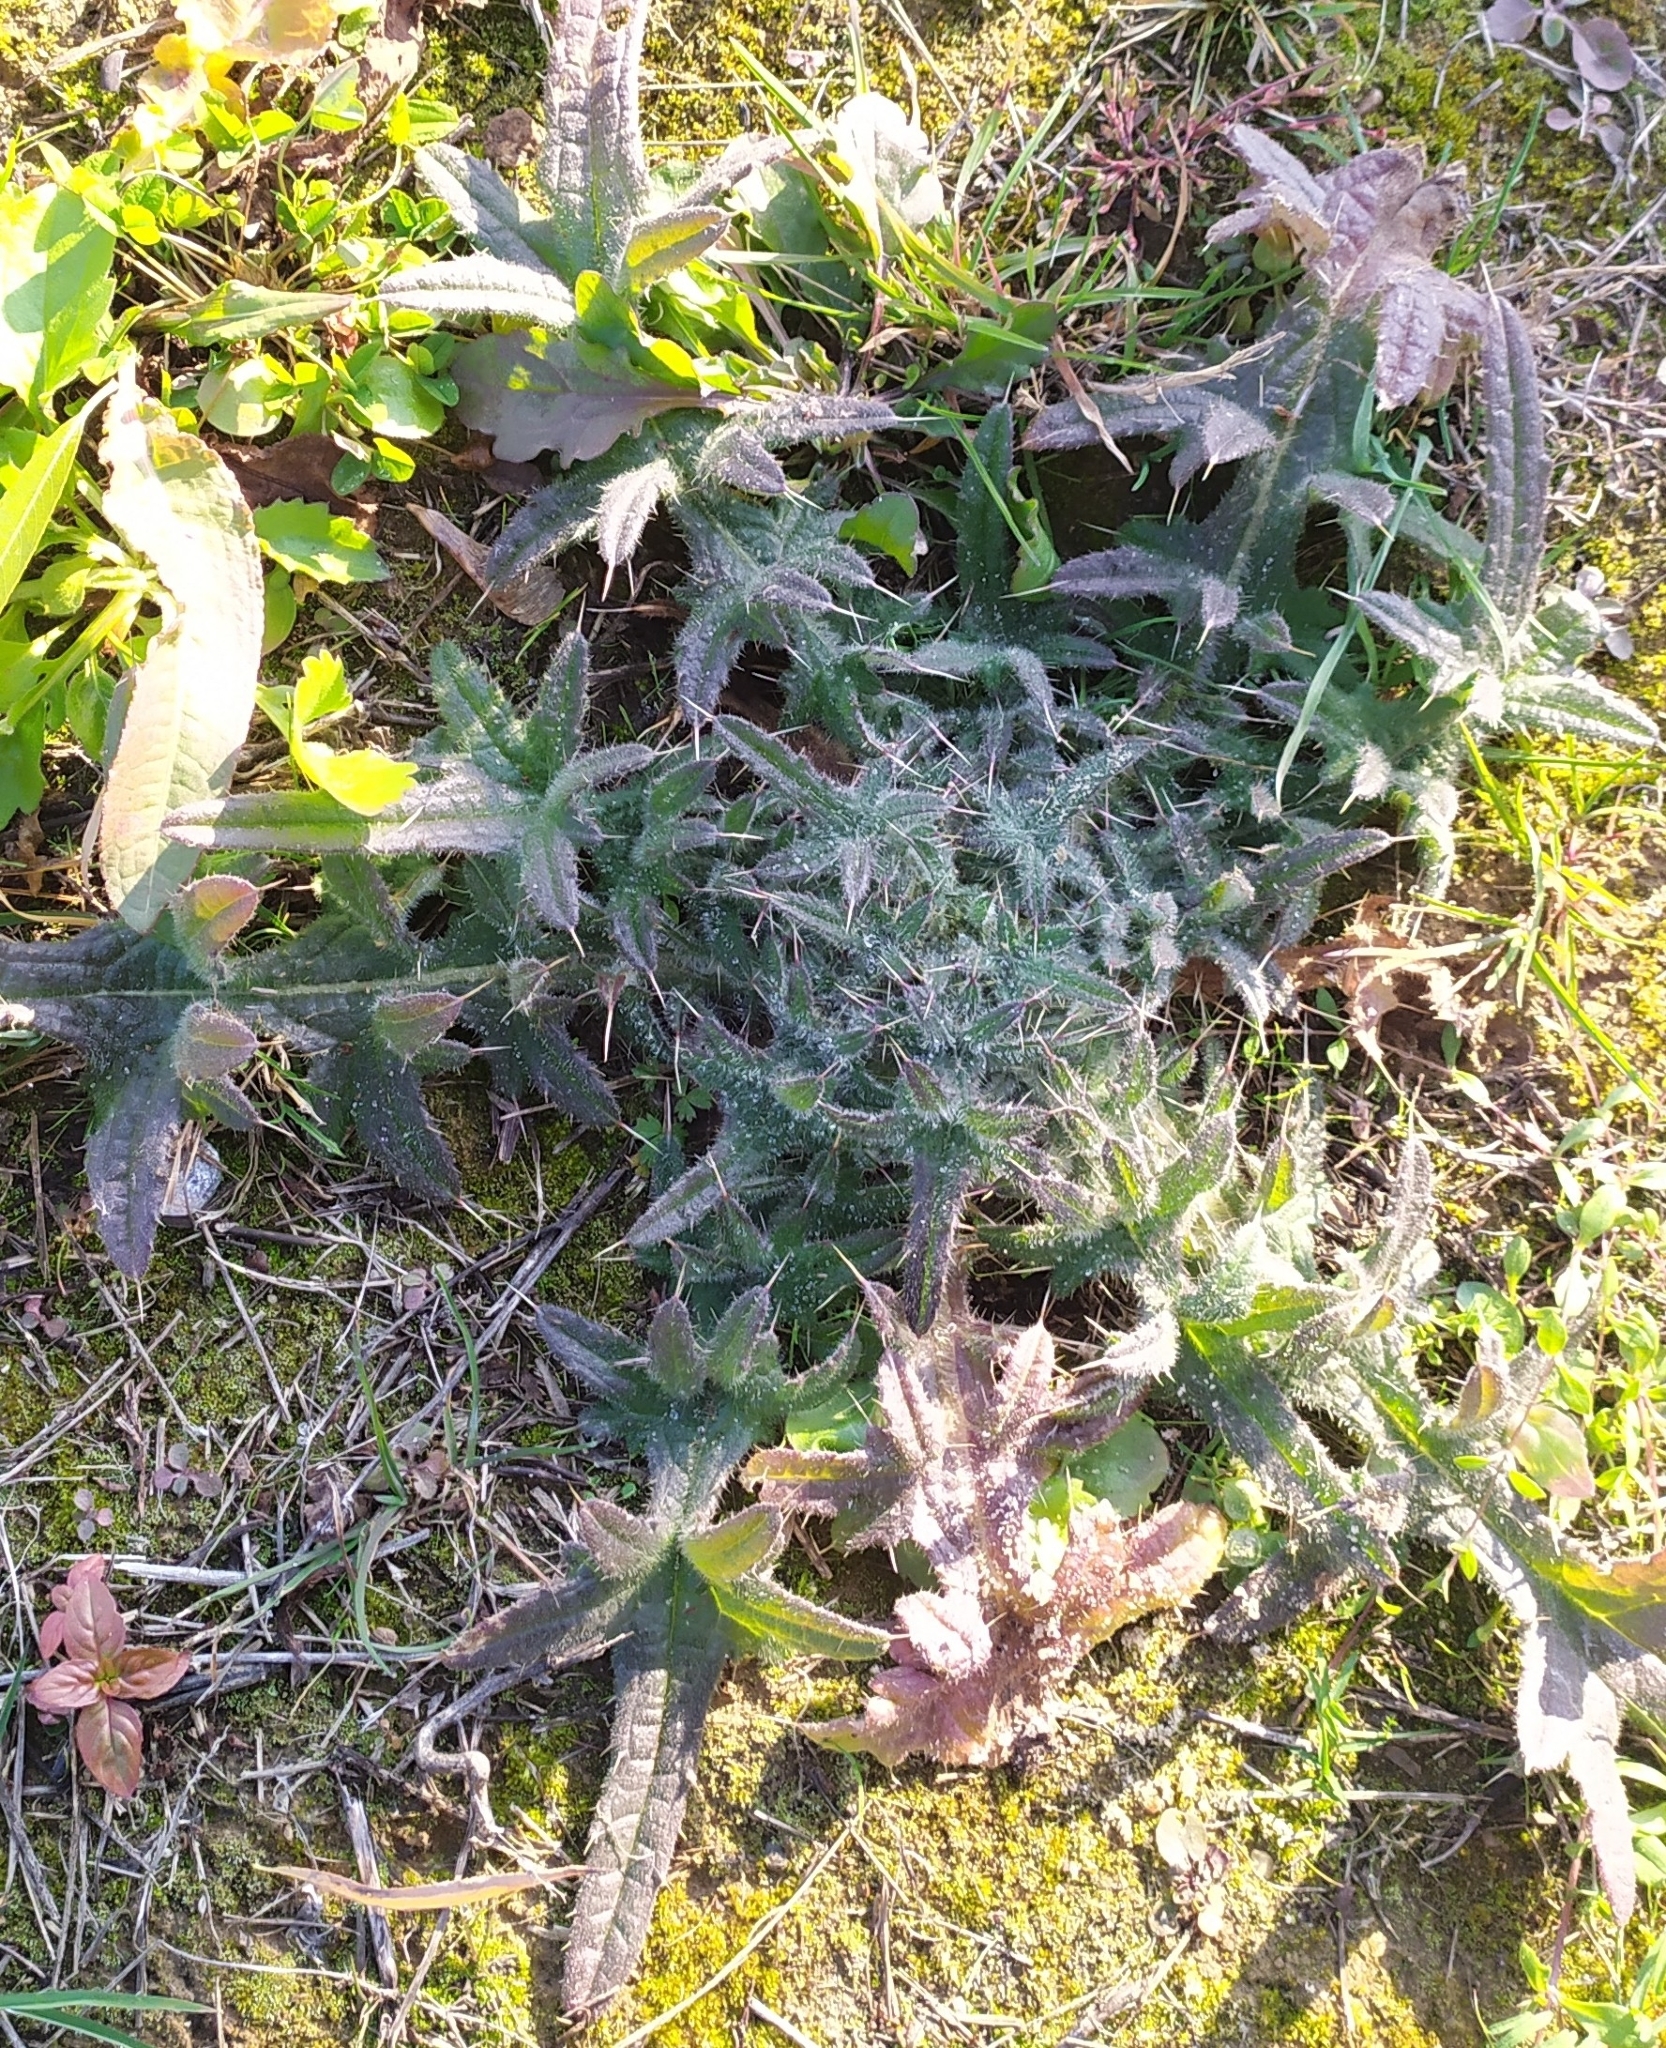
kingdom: Plantae
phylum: Tracheophyta
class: Magnoliopsida
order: Asterales
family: Asteraceae
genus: Cirsium
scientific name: Cirsium vulgare
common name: Bull thistle
